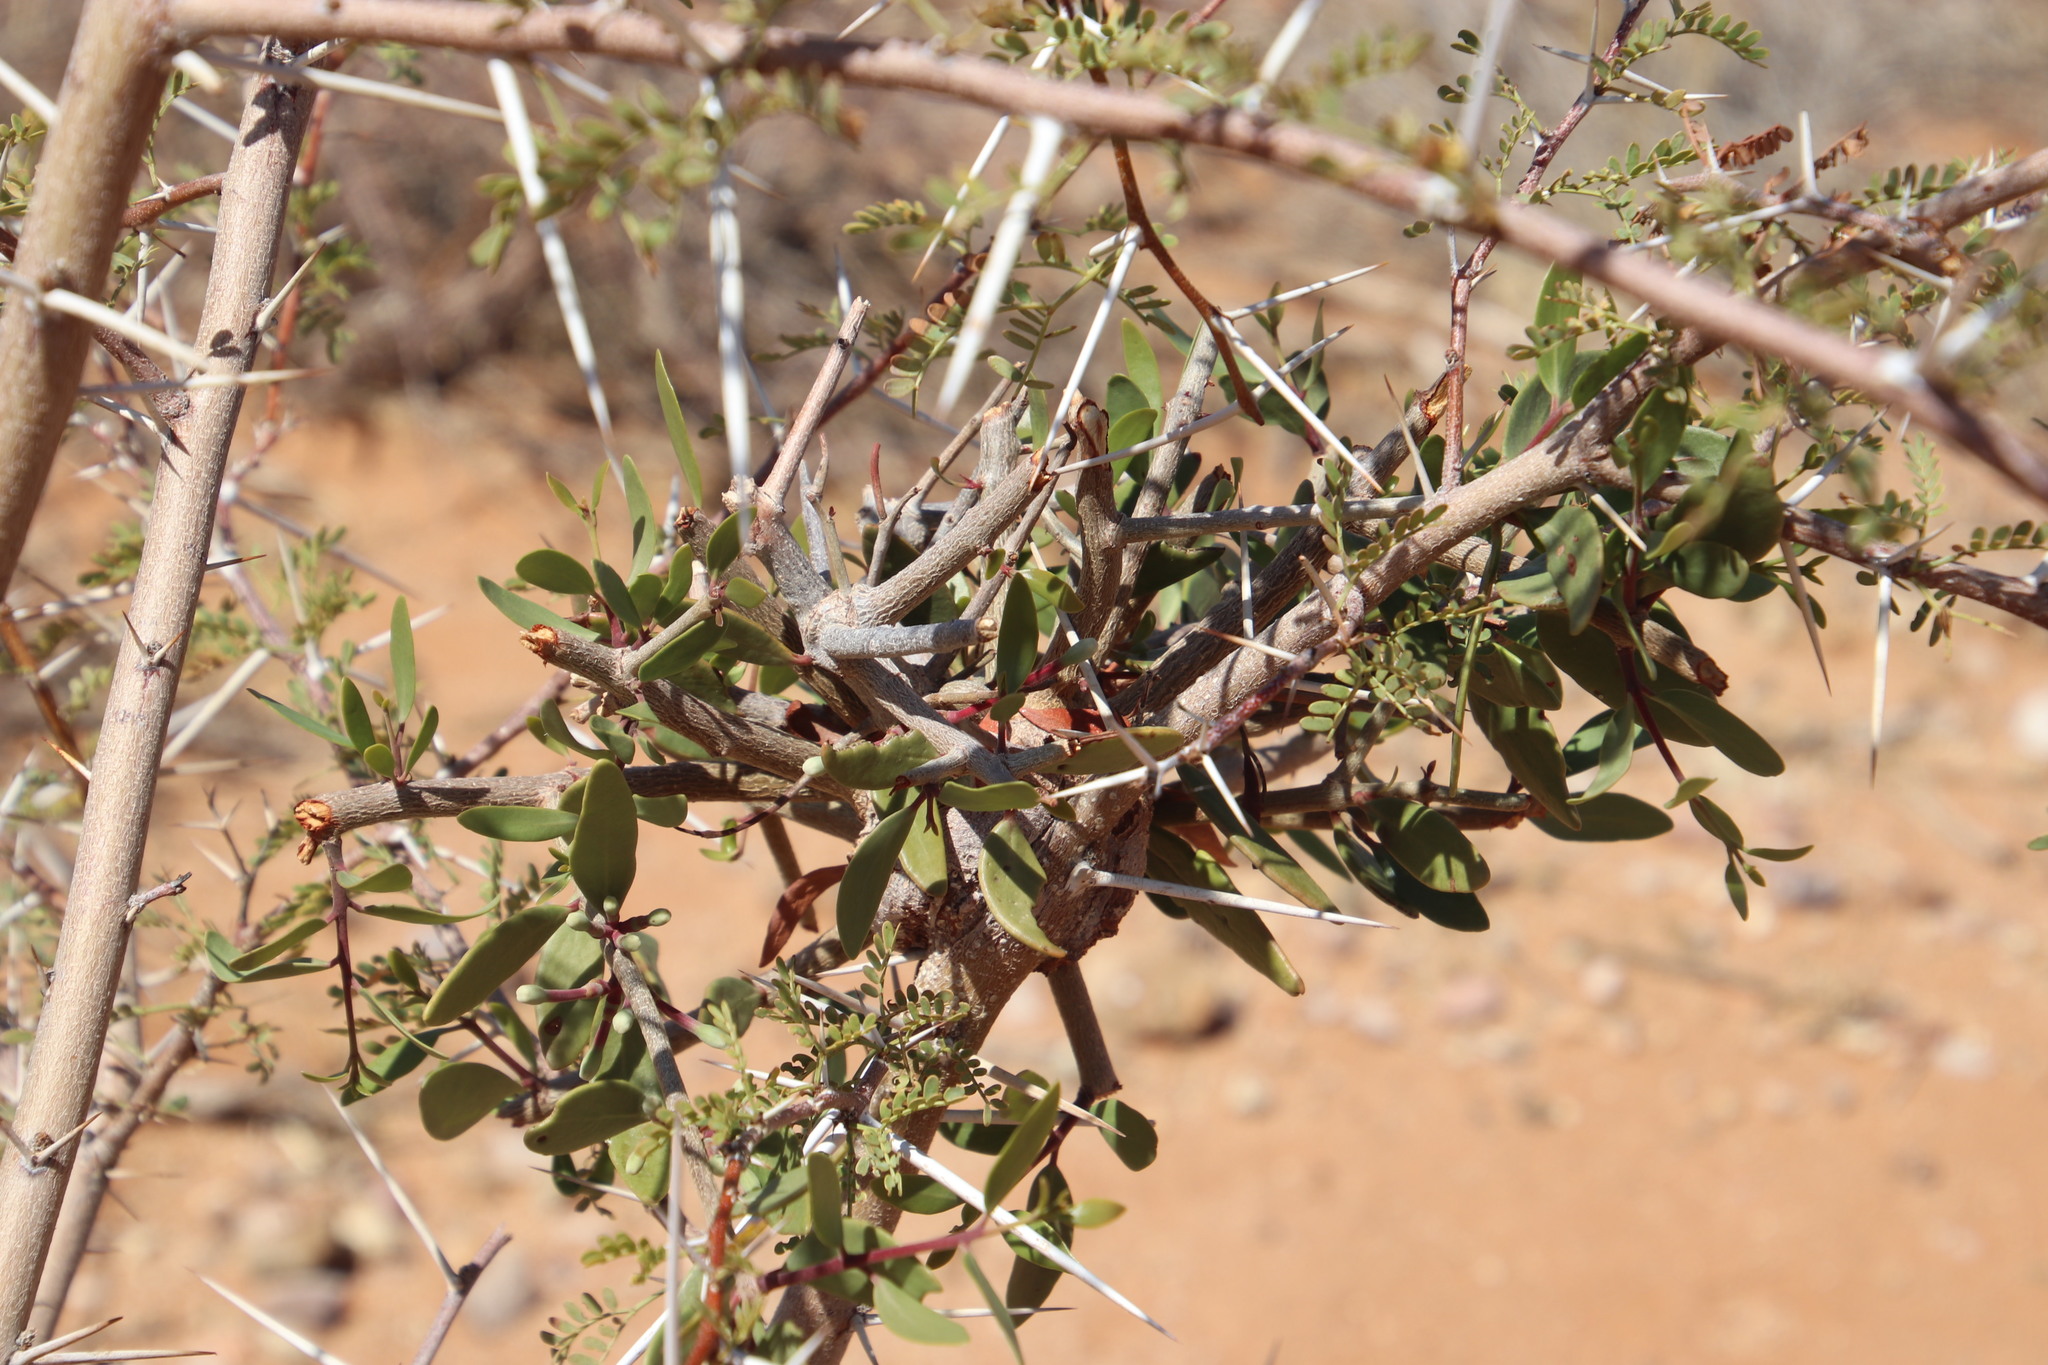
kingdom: Plantae
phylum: Tracheophyta
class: Magnoliopsida
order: Santalales
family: Loranthaceae
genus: Tapinanthus
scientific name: Tapinanthus oleifolius
